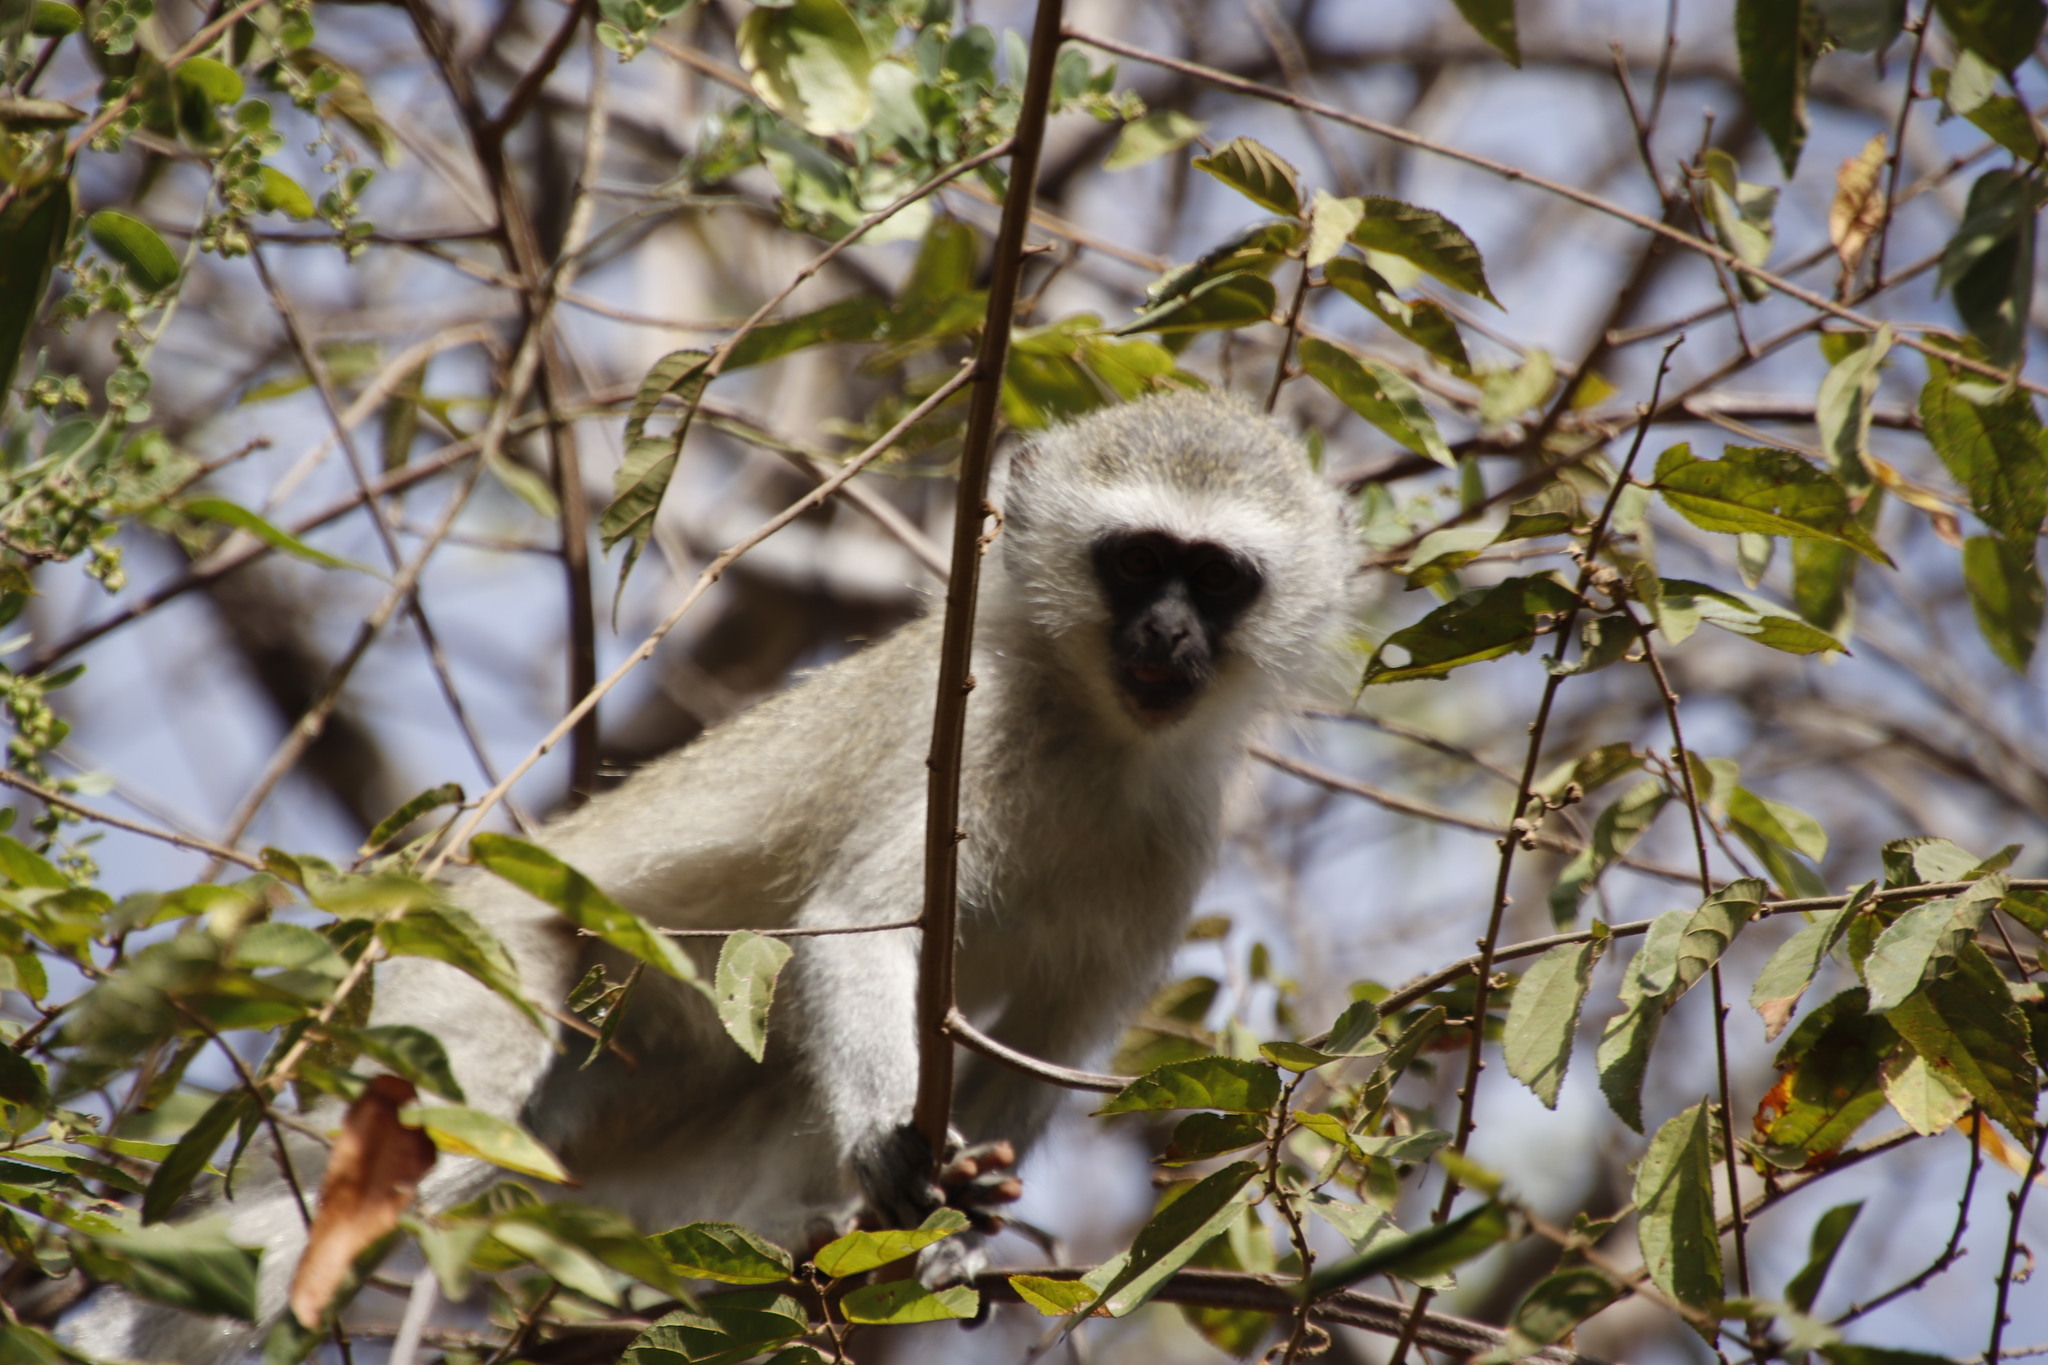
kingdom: Animalia
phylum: Chordata
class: Mammalia
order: Primates
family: Cercopithecidae
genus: Chlorocebus
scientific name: Chlorocebus pygerythrus
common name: Vervet monkey
